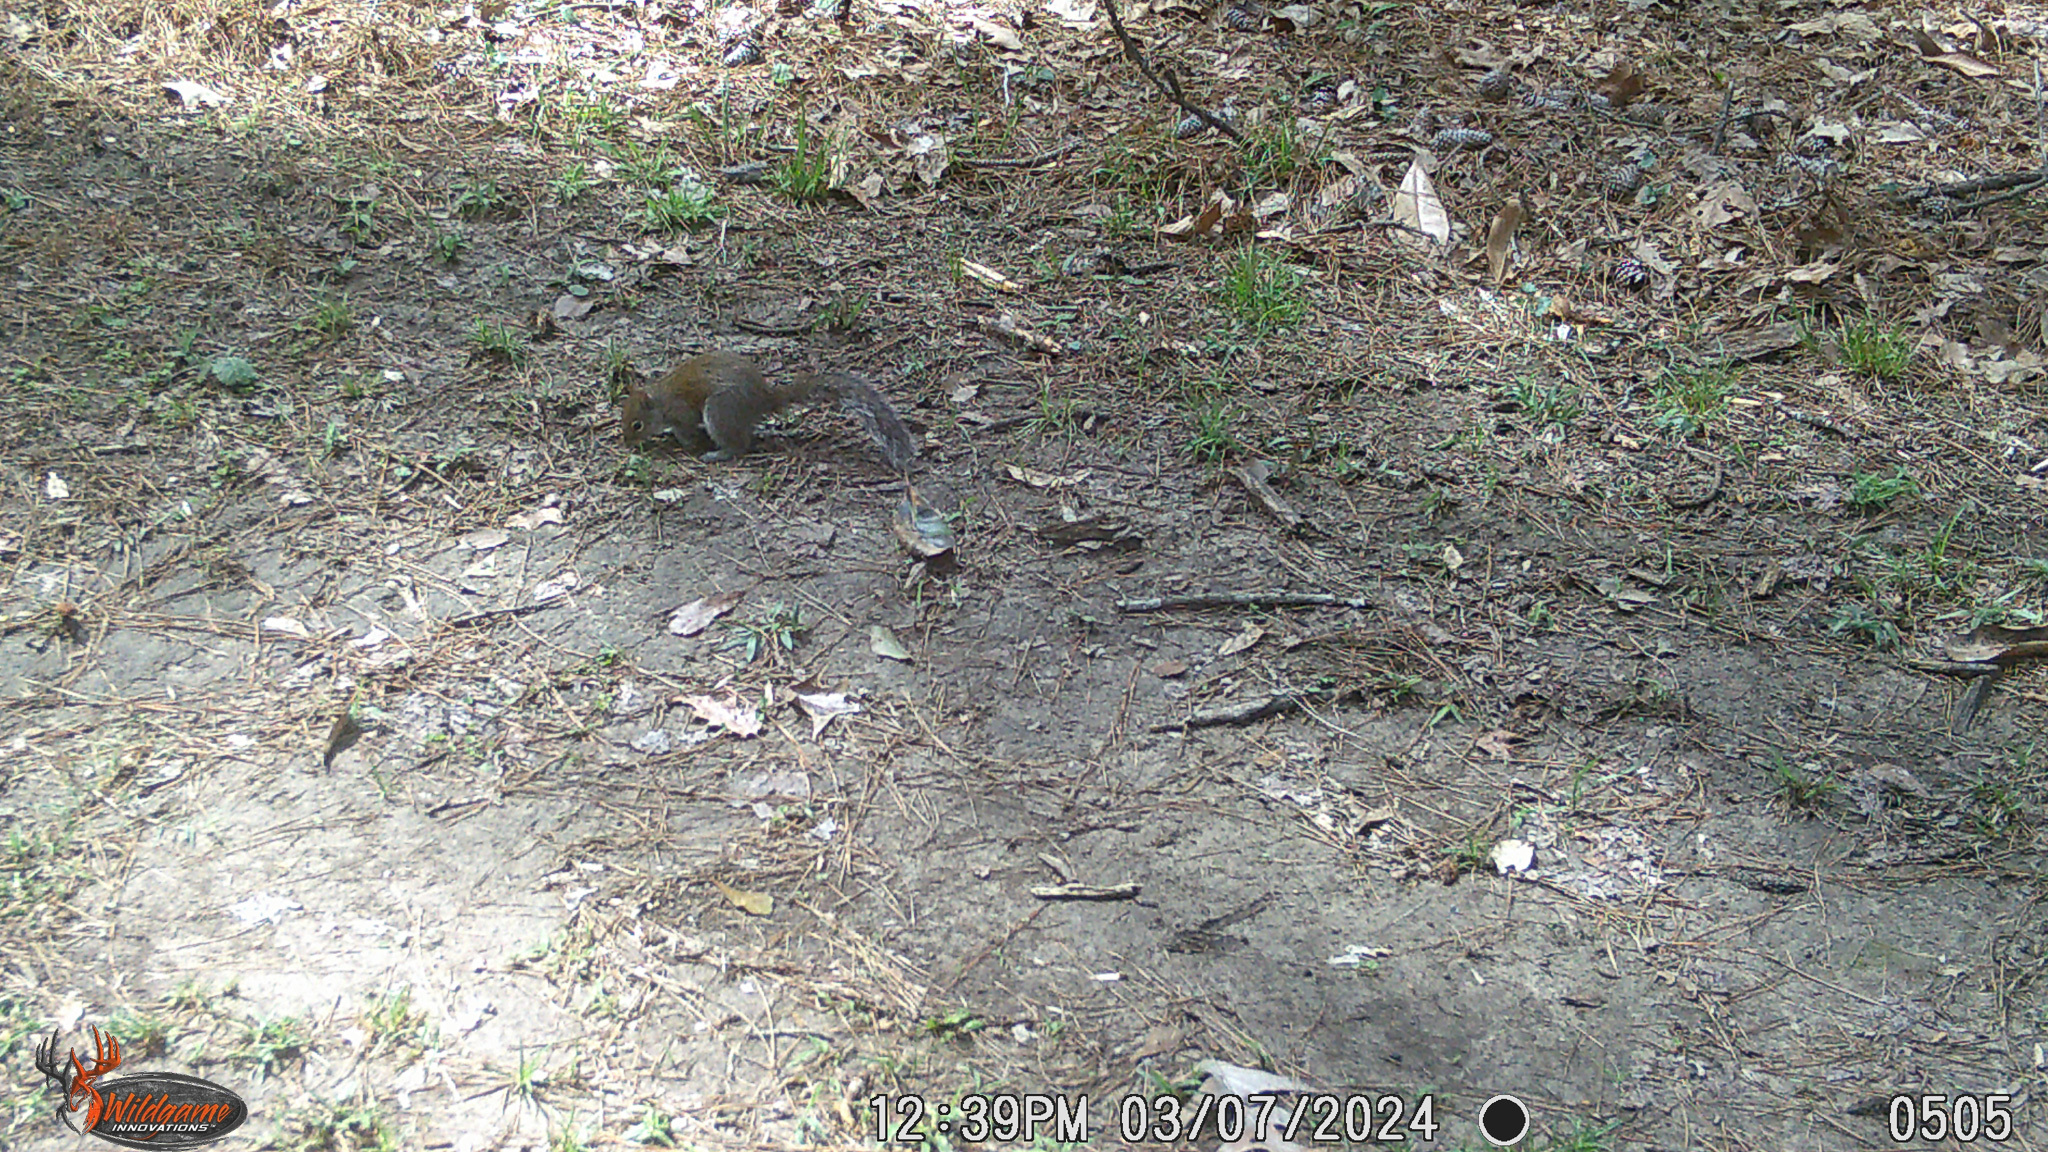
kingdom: Animalia
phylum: Chordata
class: Mammalia
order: Rodentia
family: Sciuridae
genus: Sciurus
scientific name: Sciurus carolinensis
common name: Eastern gray squirrel
